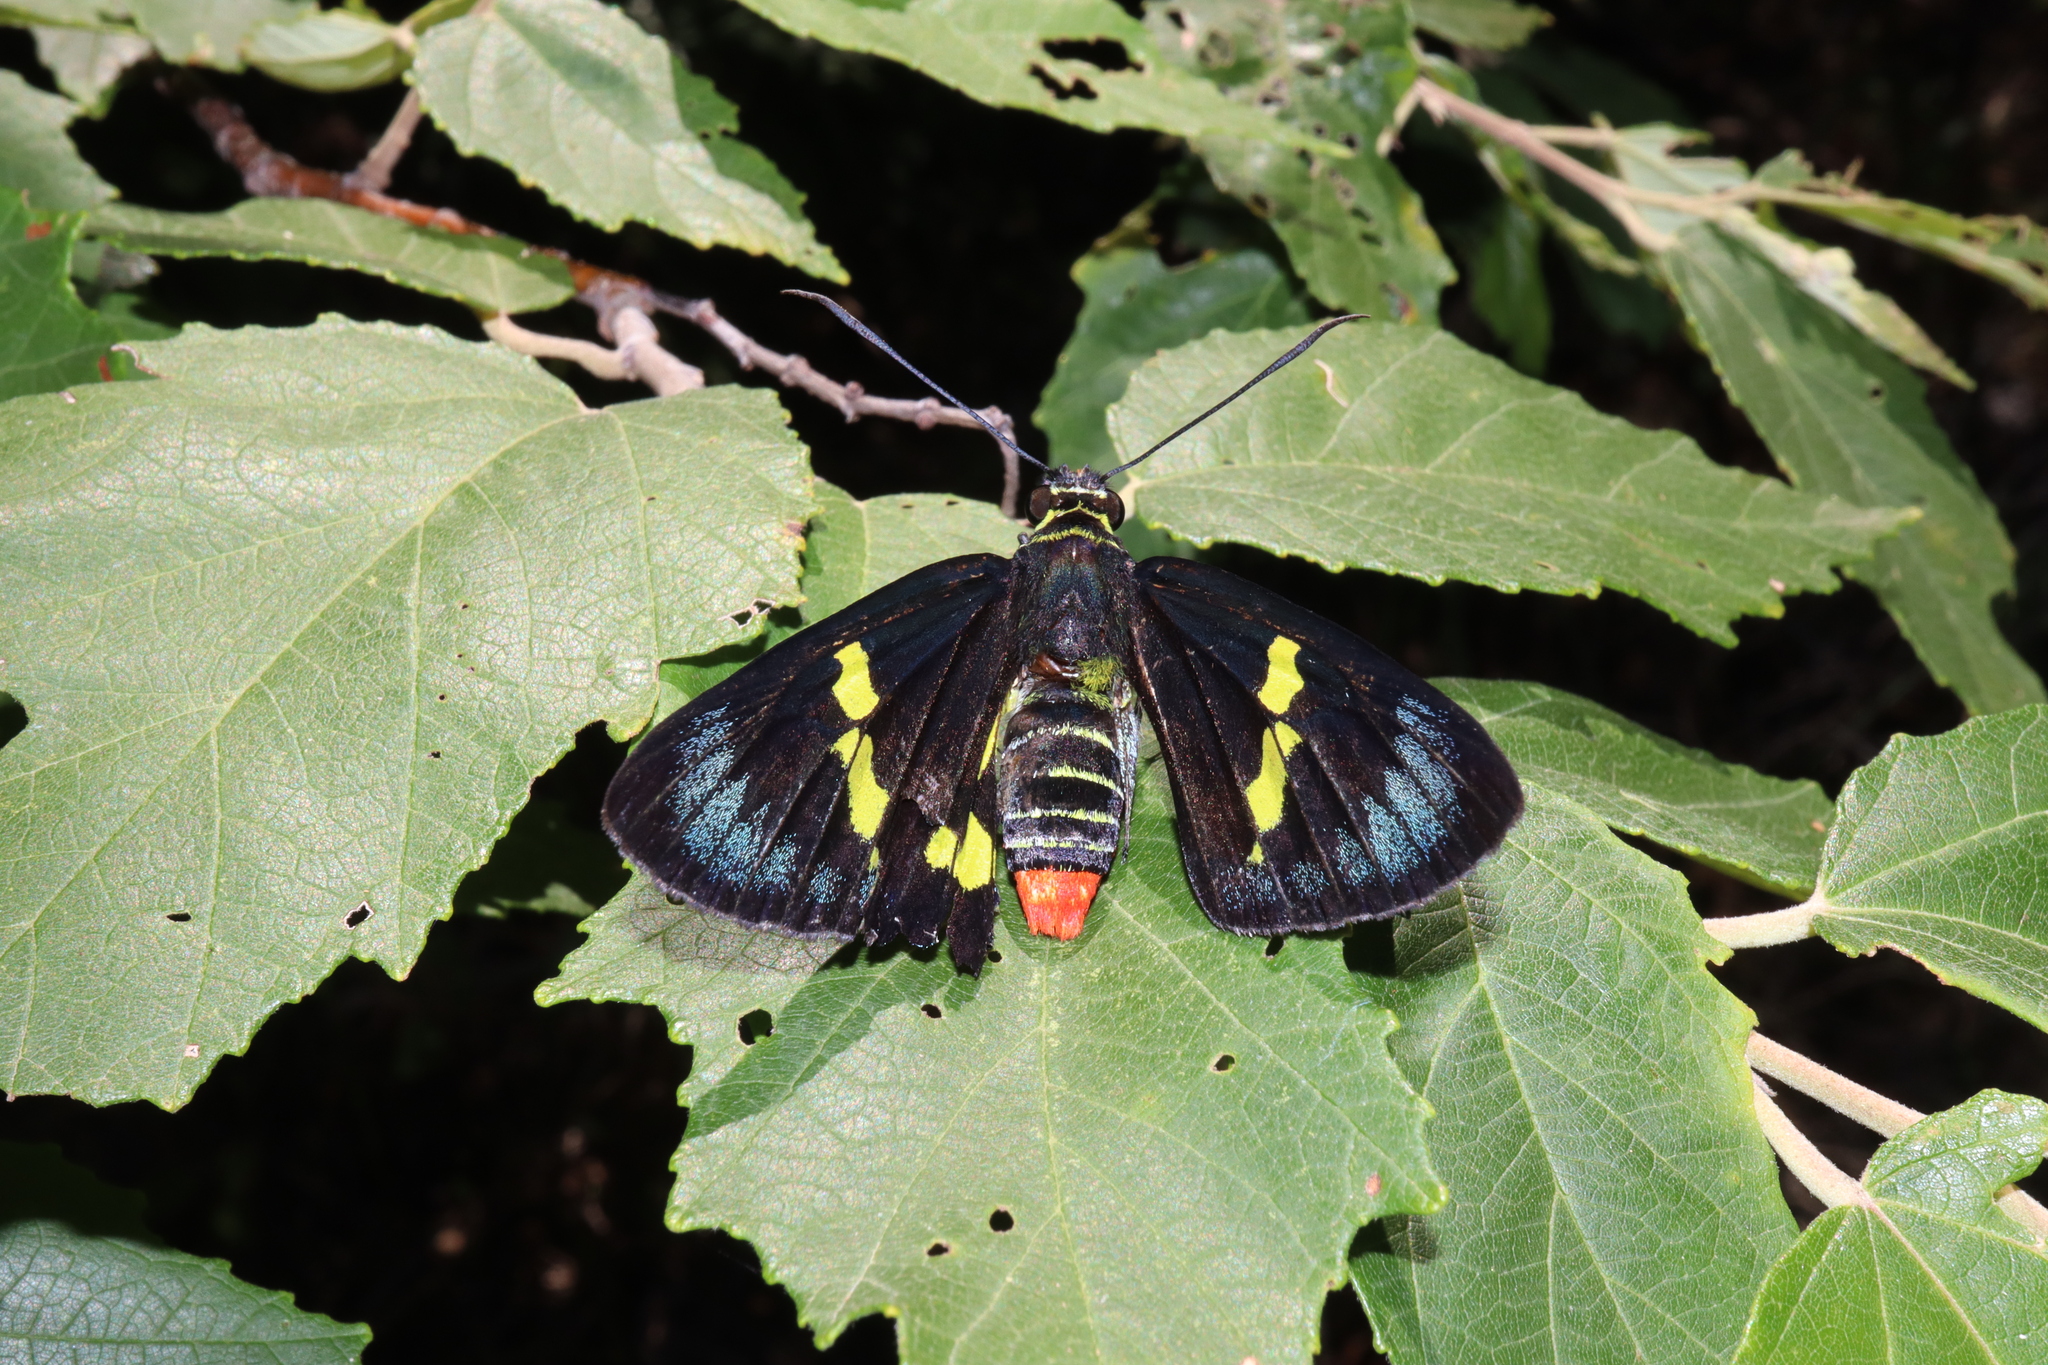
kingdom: Animalia
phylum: Arthropoda
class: Insecta
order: Lepidoptera
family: Hesperiidae
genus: Euschemon
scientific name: Euschemon rafflesia
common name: Regent skipper
